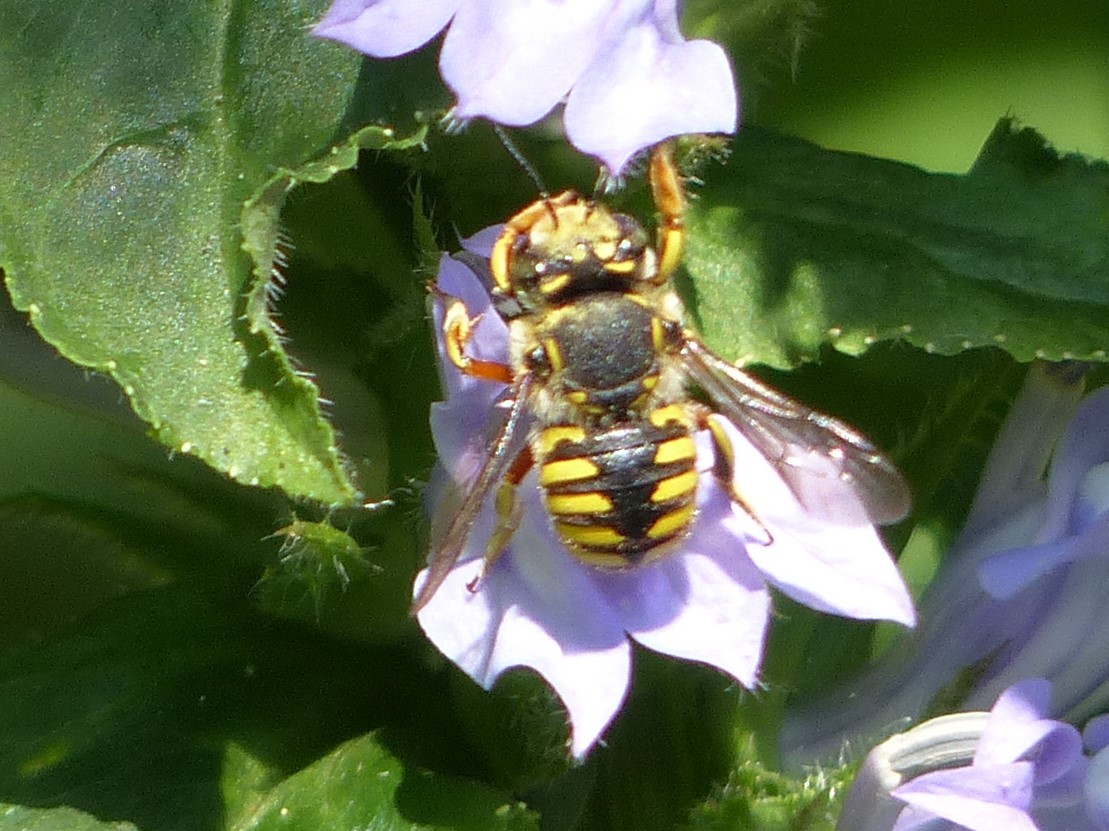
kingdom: Animalia
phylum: Arthropoda
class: Insecta
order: Hymenoptera
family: Megachilidae
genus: Anthidium
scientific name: Anthidium manicatum
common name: Wool carder bee
